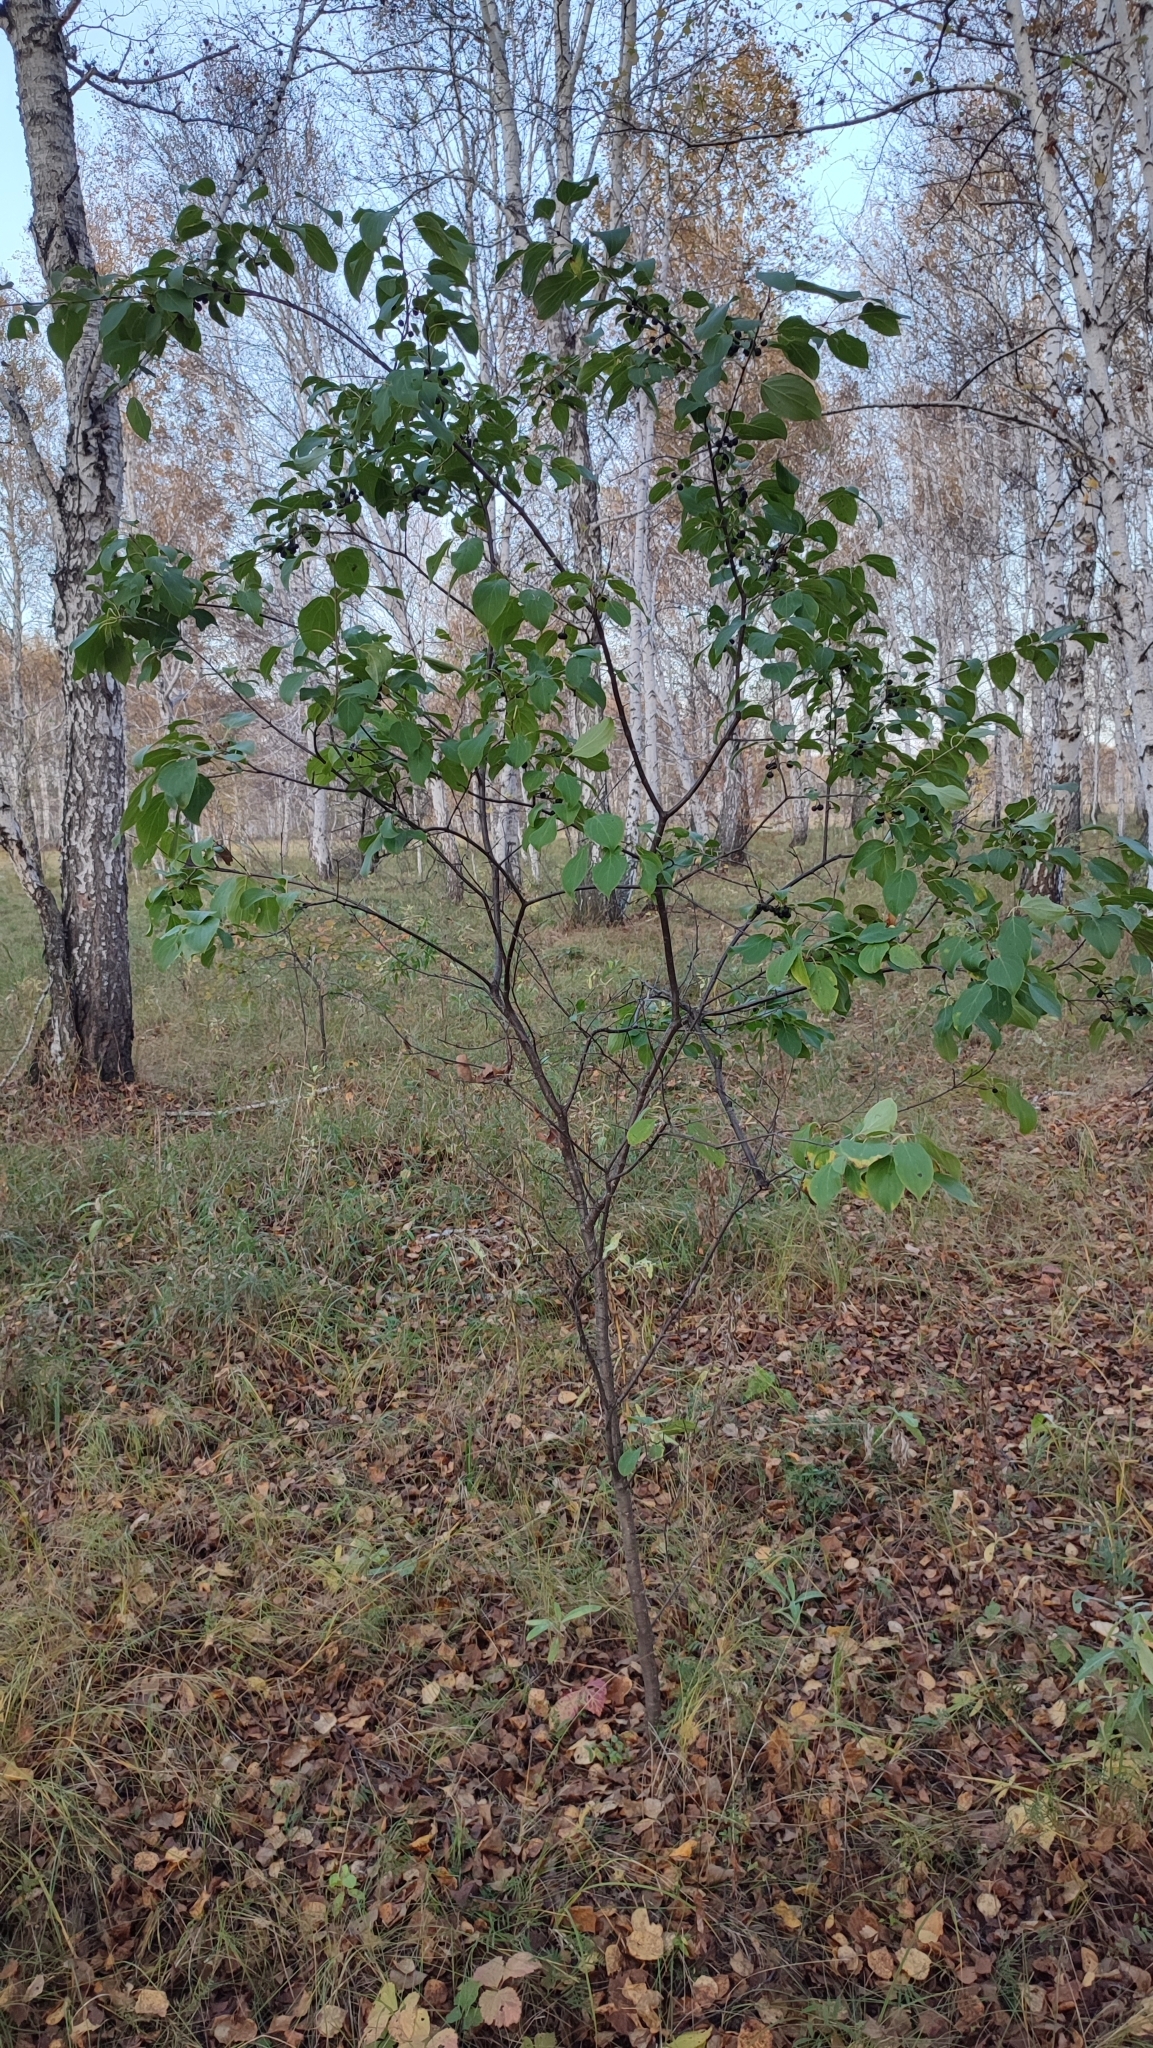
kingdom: Plantae
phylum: Tracheophyta
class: Magnoliopsida
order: Rosales
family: Rhamnaceae
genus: Rhamnus
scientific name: Rhamnus cathartica
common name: Common buckthorn
